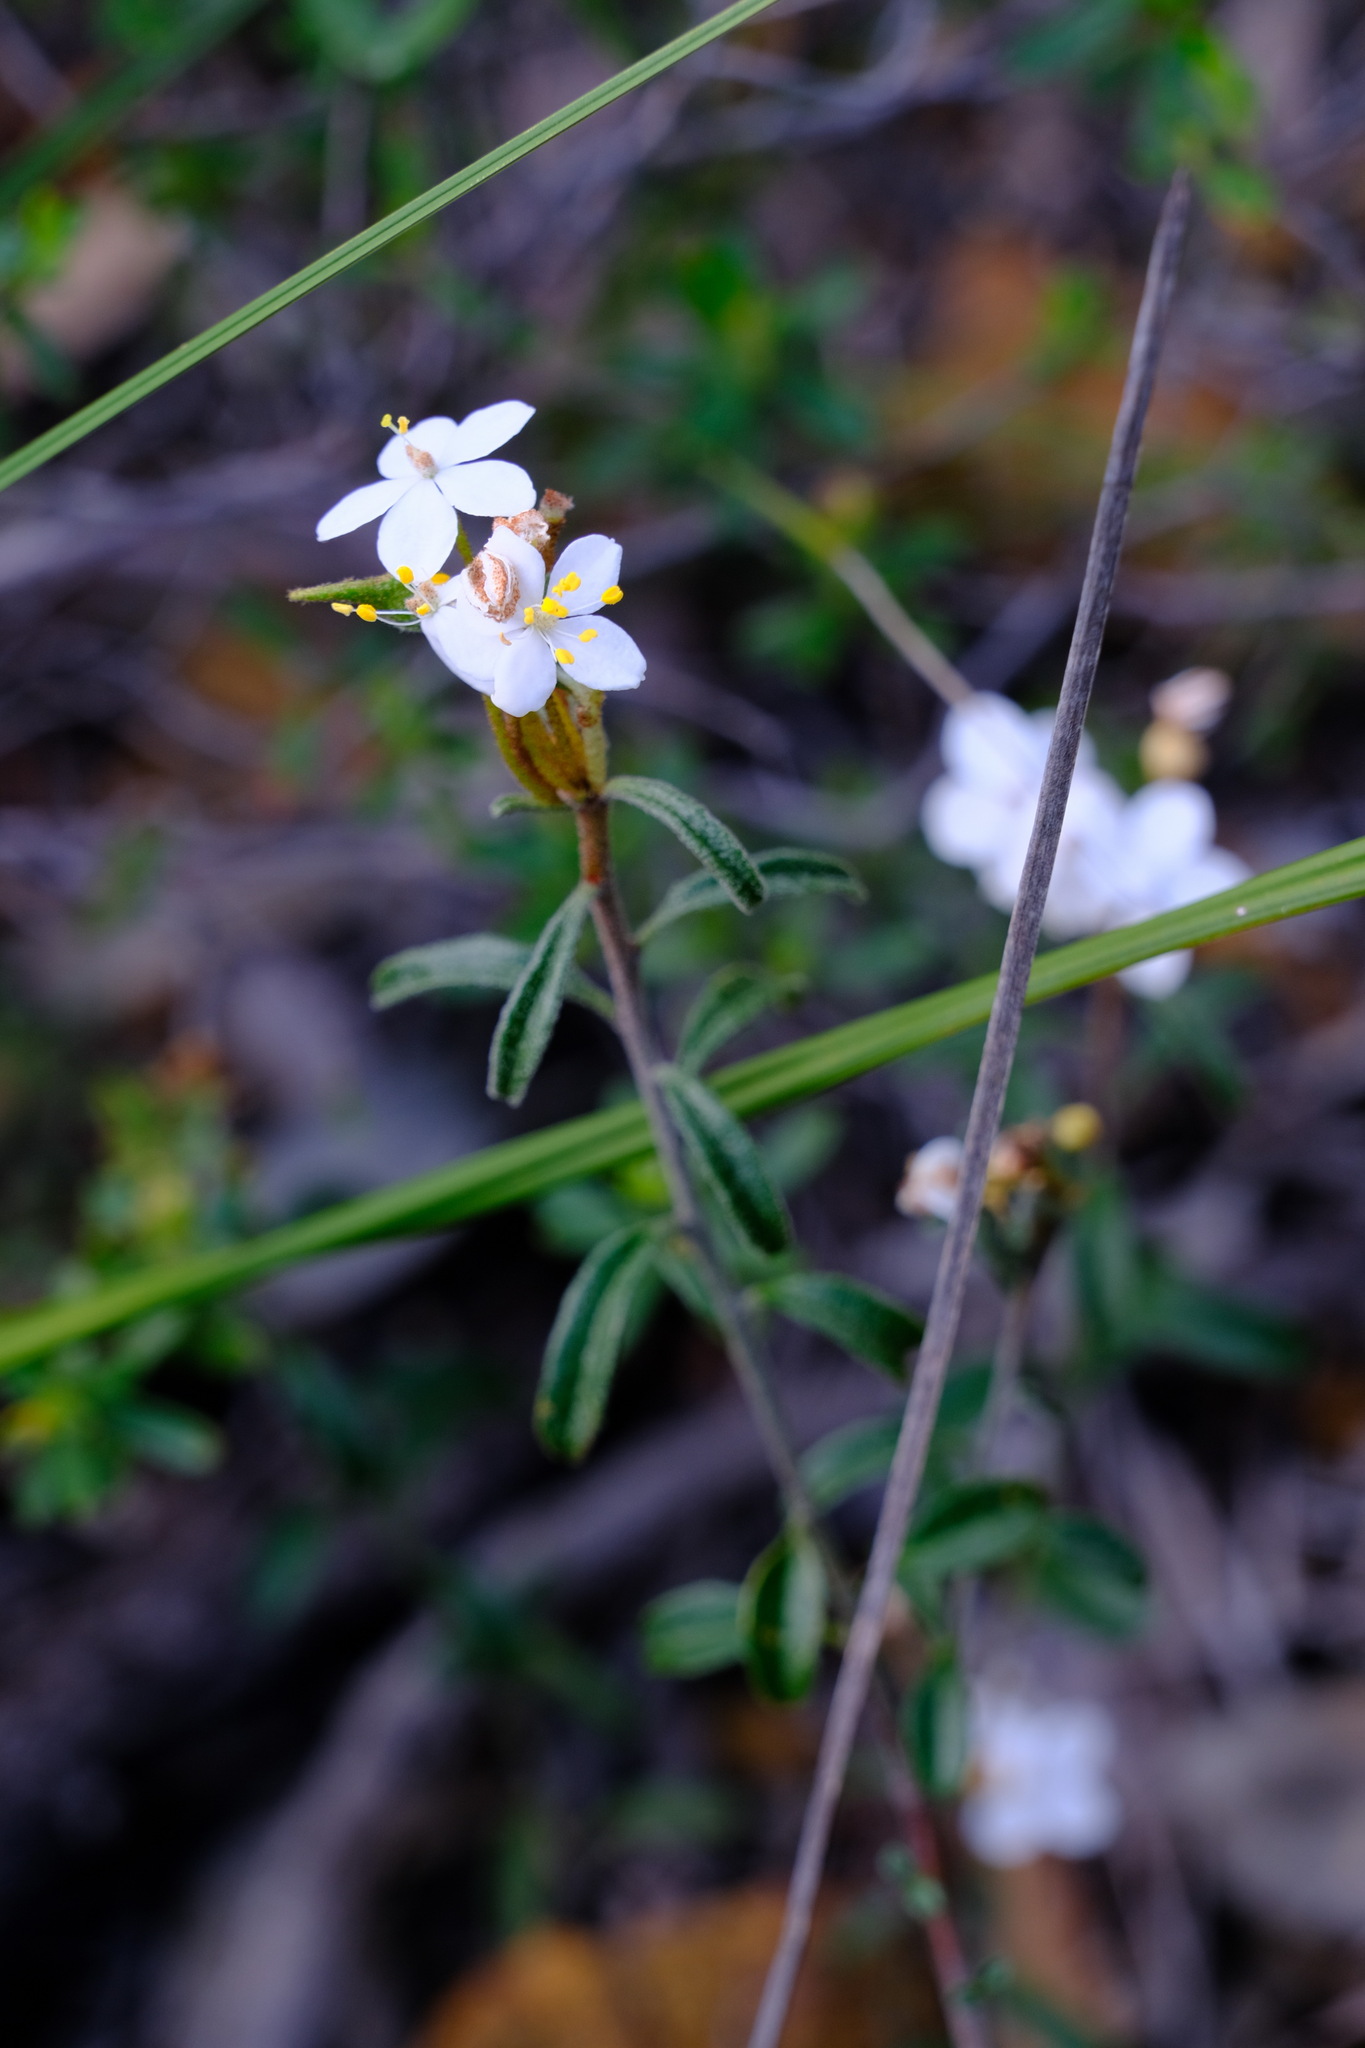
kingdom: Plantae
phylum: Tracheophyta
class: Magnoliopsida
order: Sapindales
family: Rutaceae
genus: Asterolasia
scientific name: Asterolasia drummondii
